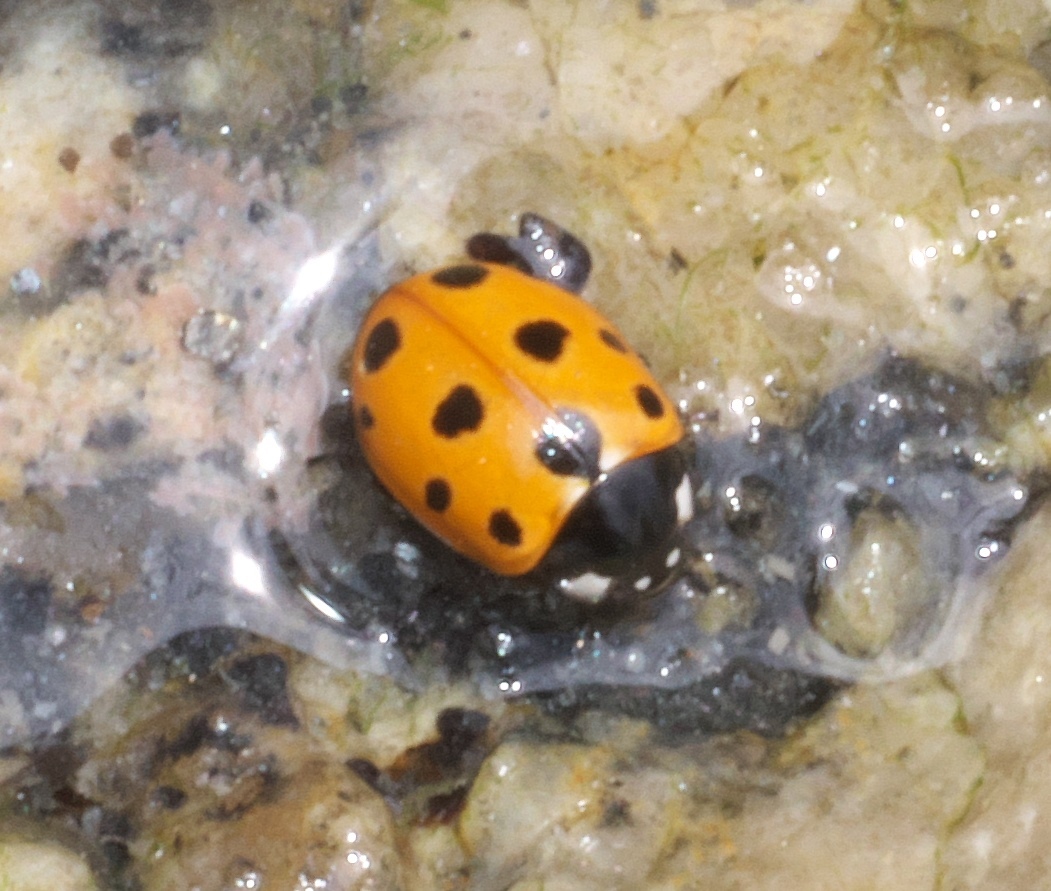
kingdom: Animalia
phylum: Arthropoda
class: Insecta
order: Coleoptera
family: Coccinellidae
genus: Coccinella
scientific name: Coccinella undecimpunctata
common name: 11-spot ladybird
